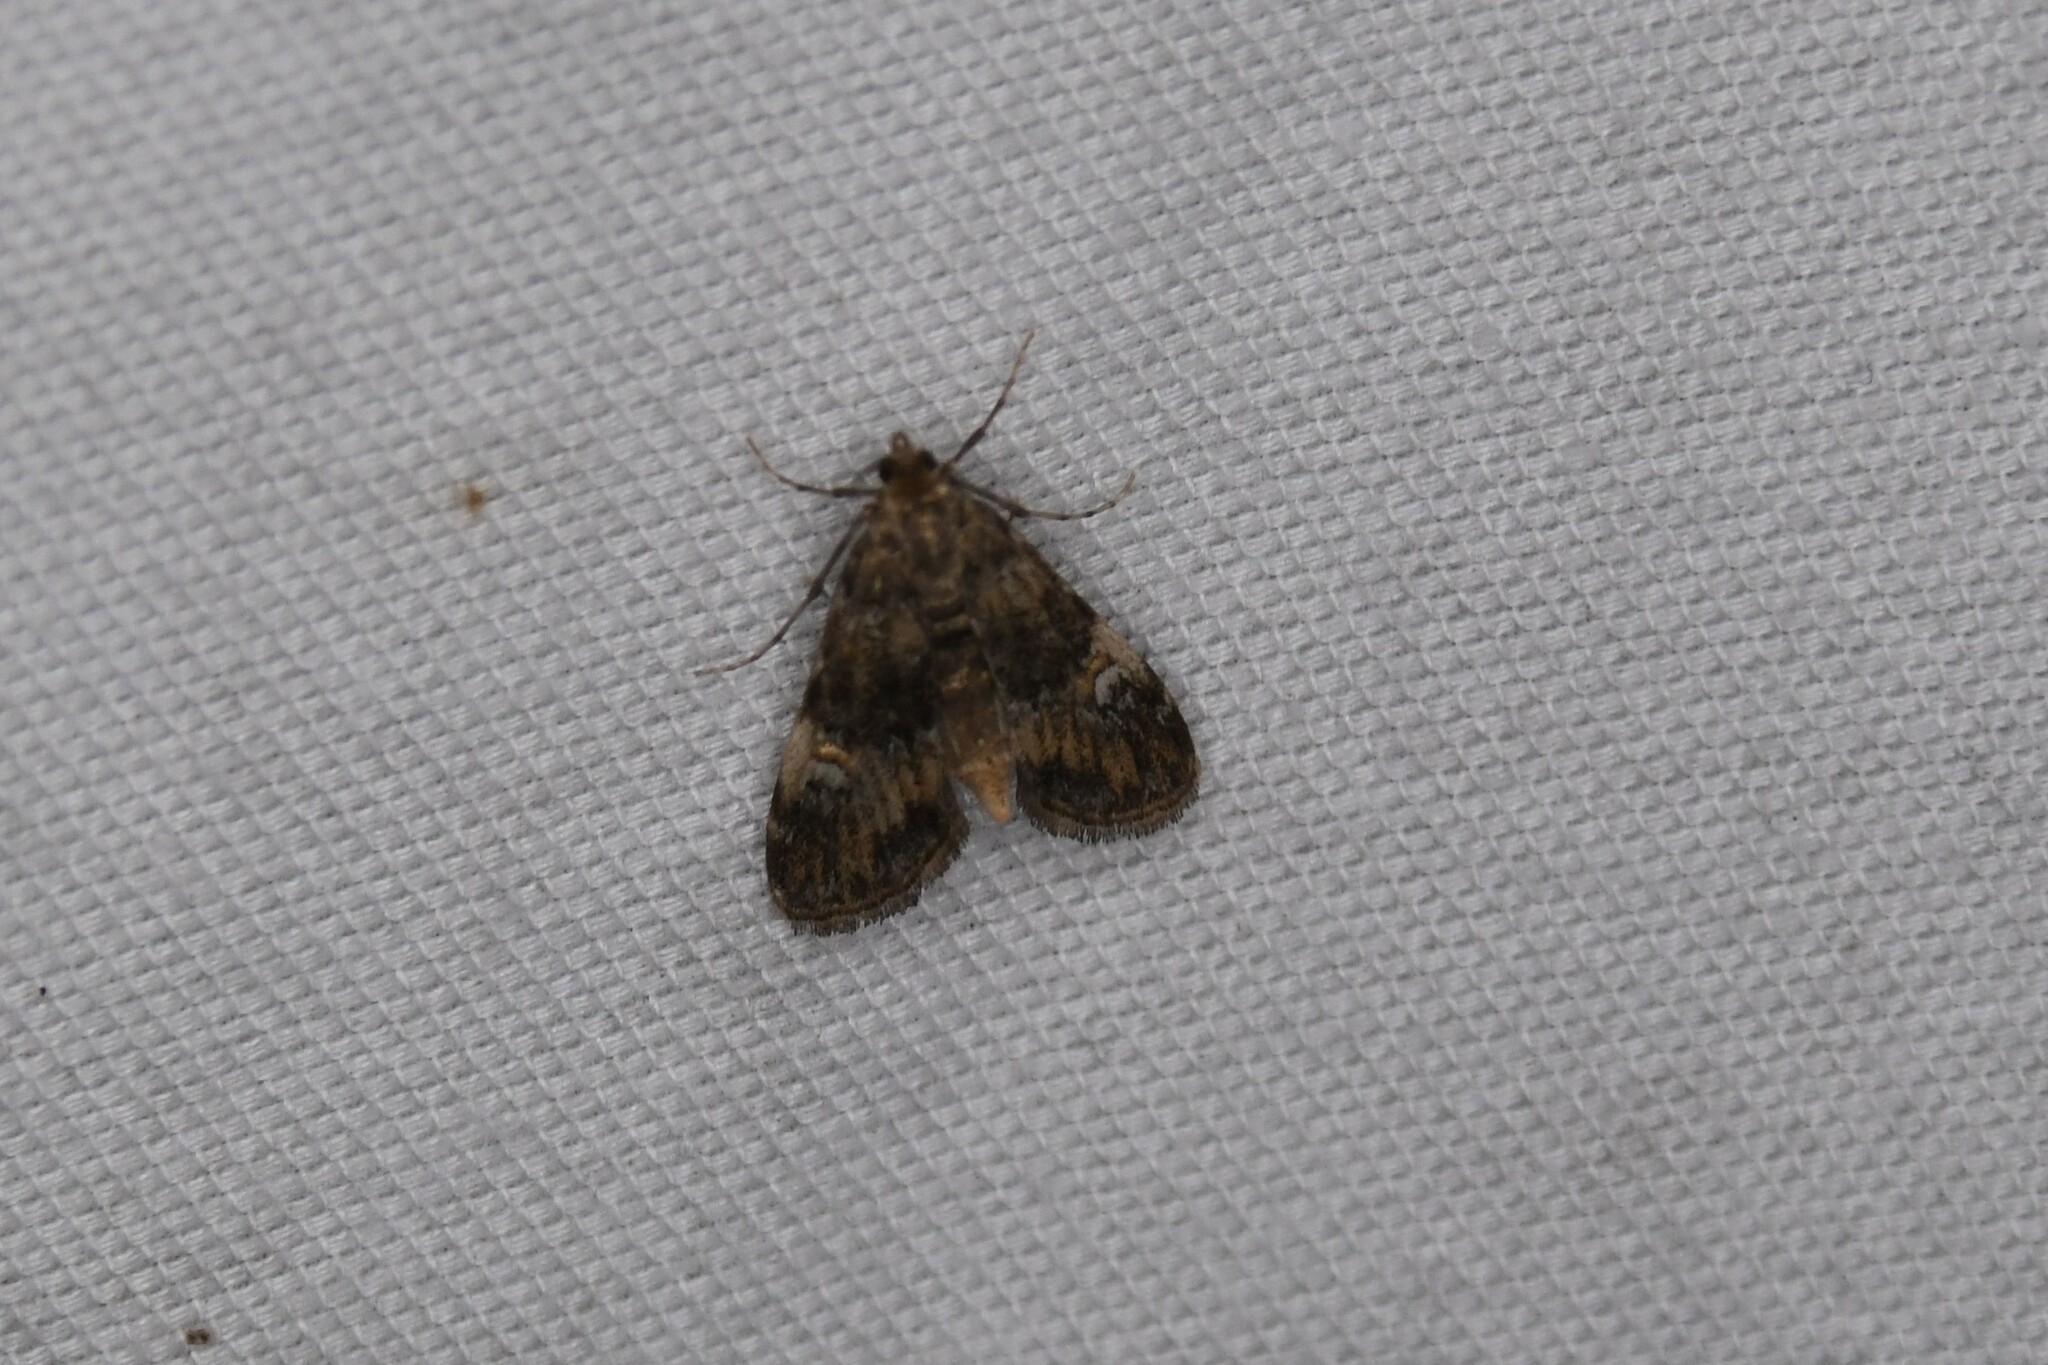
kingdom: Animalia
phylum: Arthropoda
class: Insecta
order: Lepidoptera
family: Crambidae
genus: Elophila
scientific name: Elophila obliteralis
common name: Waterlily leafcutter moth
